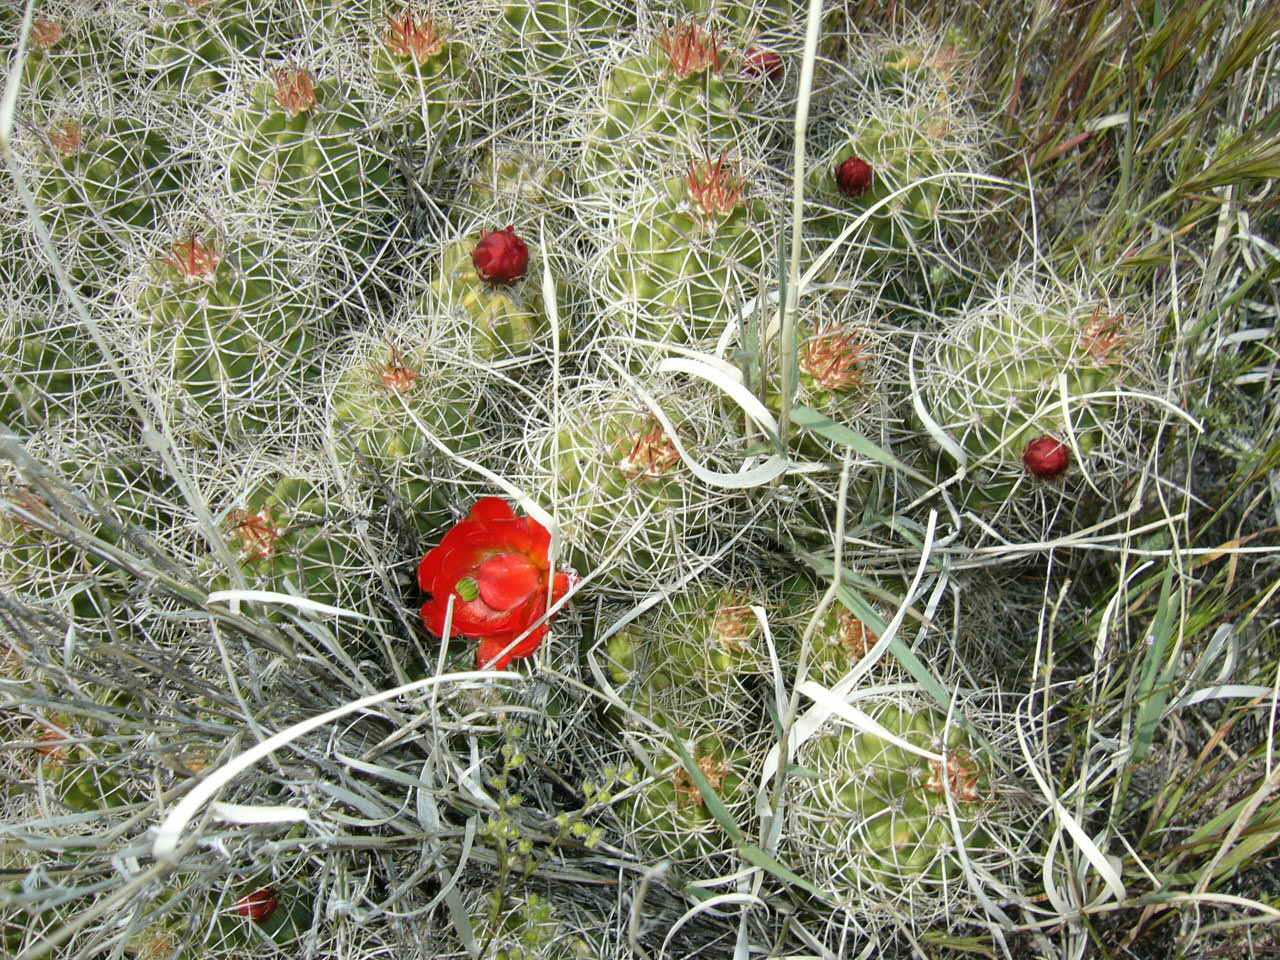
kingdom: Plantae
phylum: Tracheophyta
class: Magnoliopsida
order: Caryophyllales
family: Cactaceae
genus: Echinocereus
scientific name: Echinocereus triglochidiatus
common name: Claretcup hedgehog
